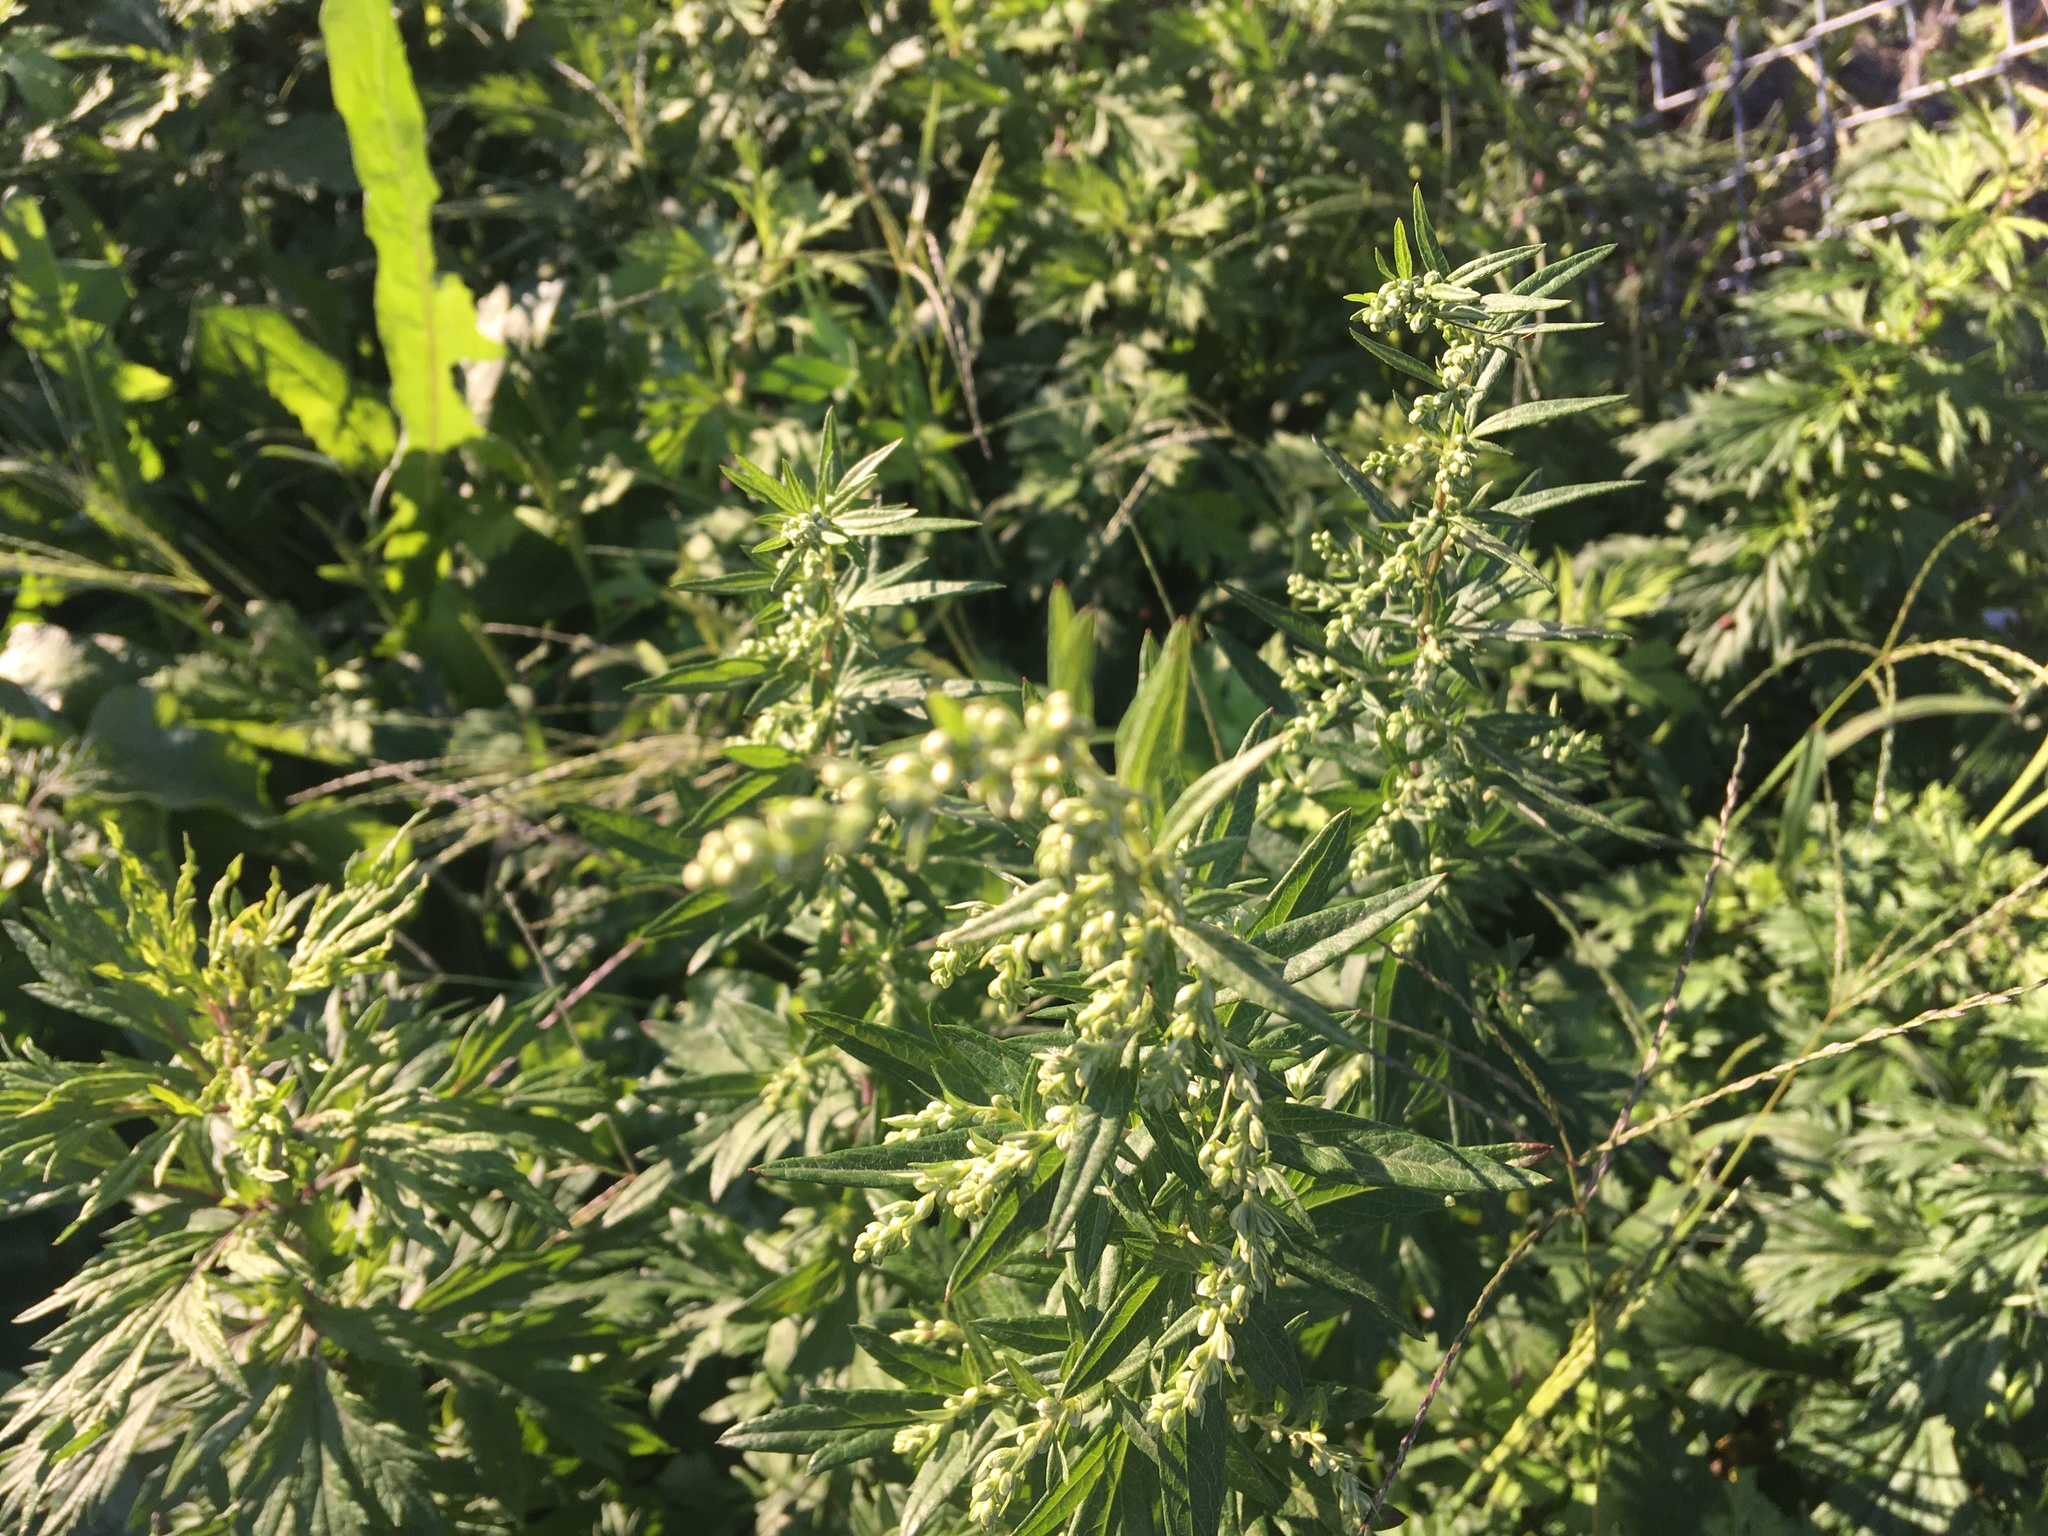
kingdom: Plantae
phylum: Tracheophyta
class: Magnoliopsida
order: Asterales
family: Asteraceae
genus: Artemisia
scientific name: Artemisia vulgaris
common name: Mugwort
